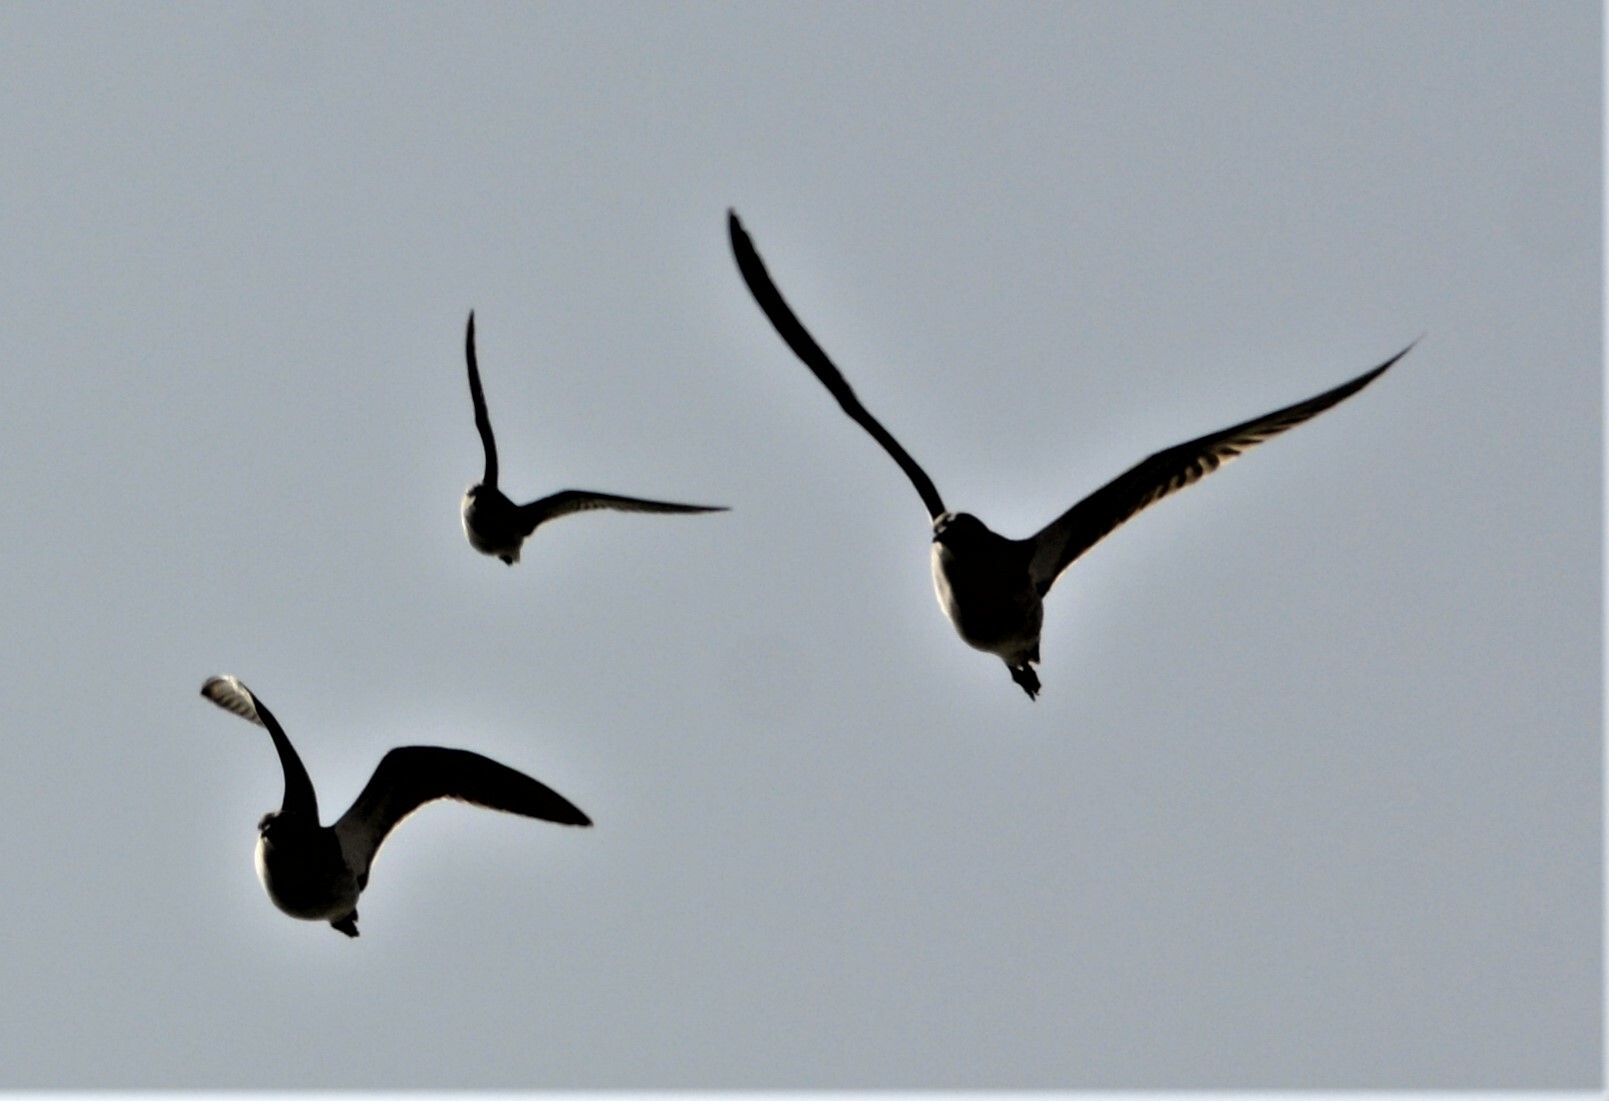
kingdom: Animalia
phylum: Chordata
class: Aves
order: Charadriiformes
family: Scolopacidae
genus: Calidris
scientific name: Calidris pugnax
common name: Ruff
